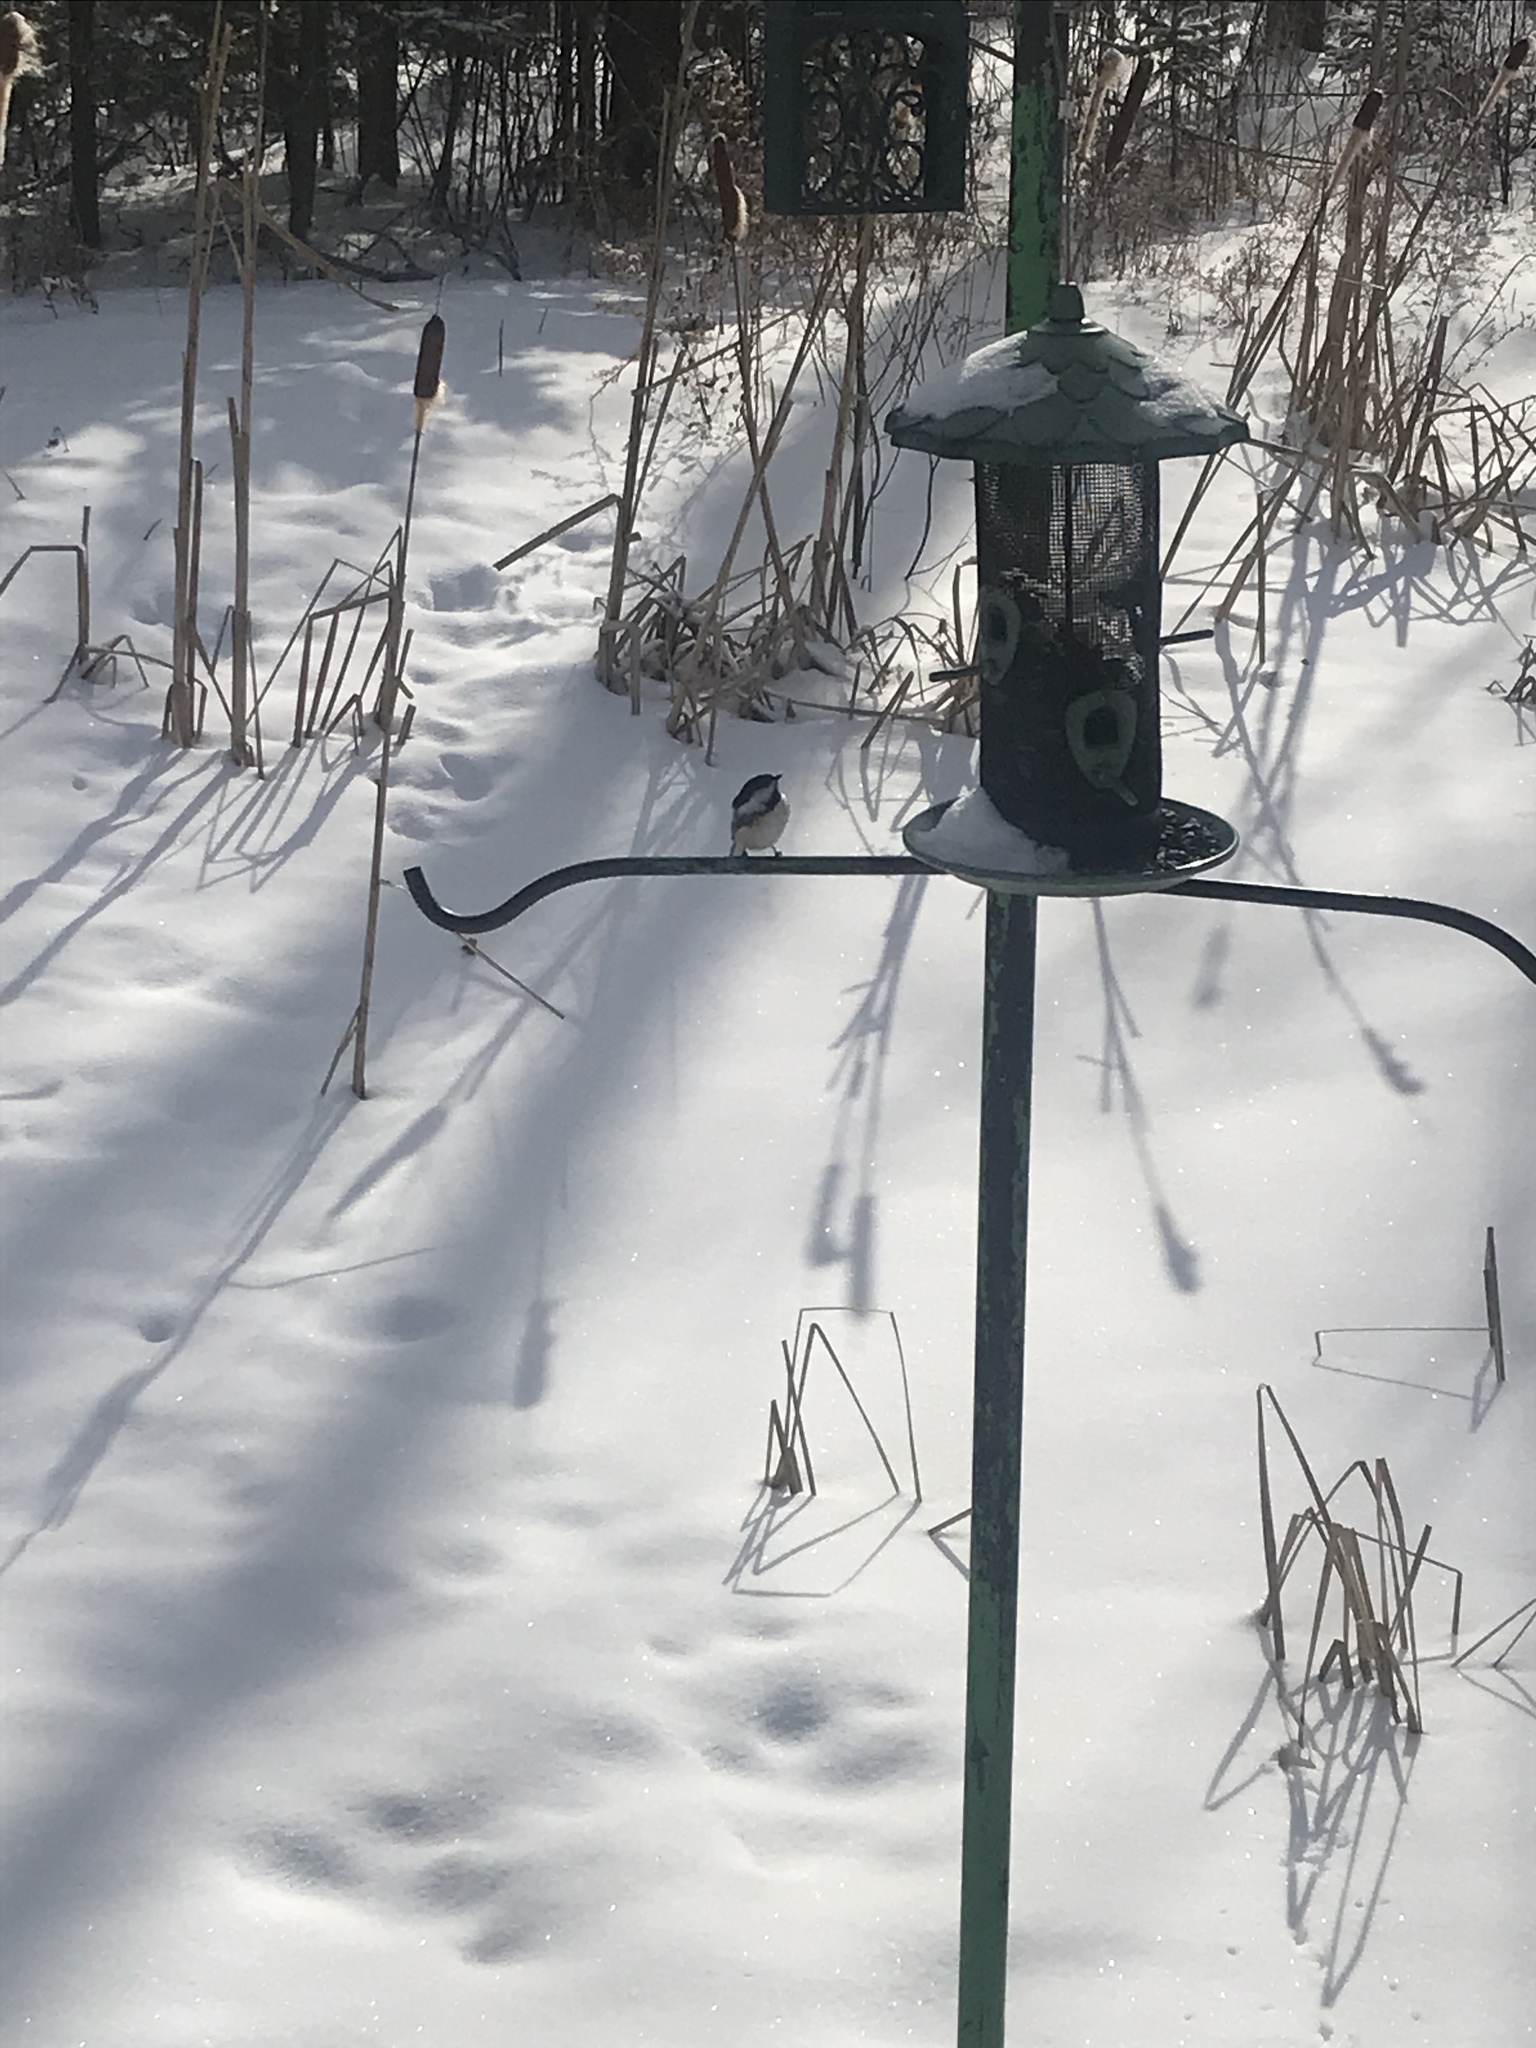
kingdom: Animalia
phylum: Chordata
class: Aves
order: Passeriformes
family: Paridae
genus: Poecile
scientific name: Poecile atricapillus
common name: Black-capped chickadee
